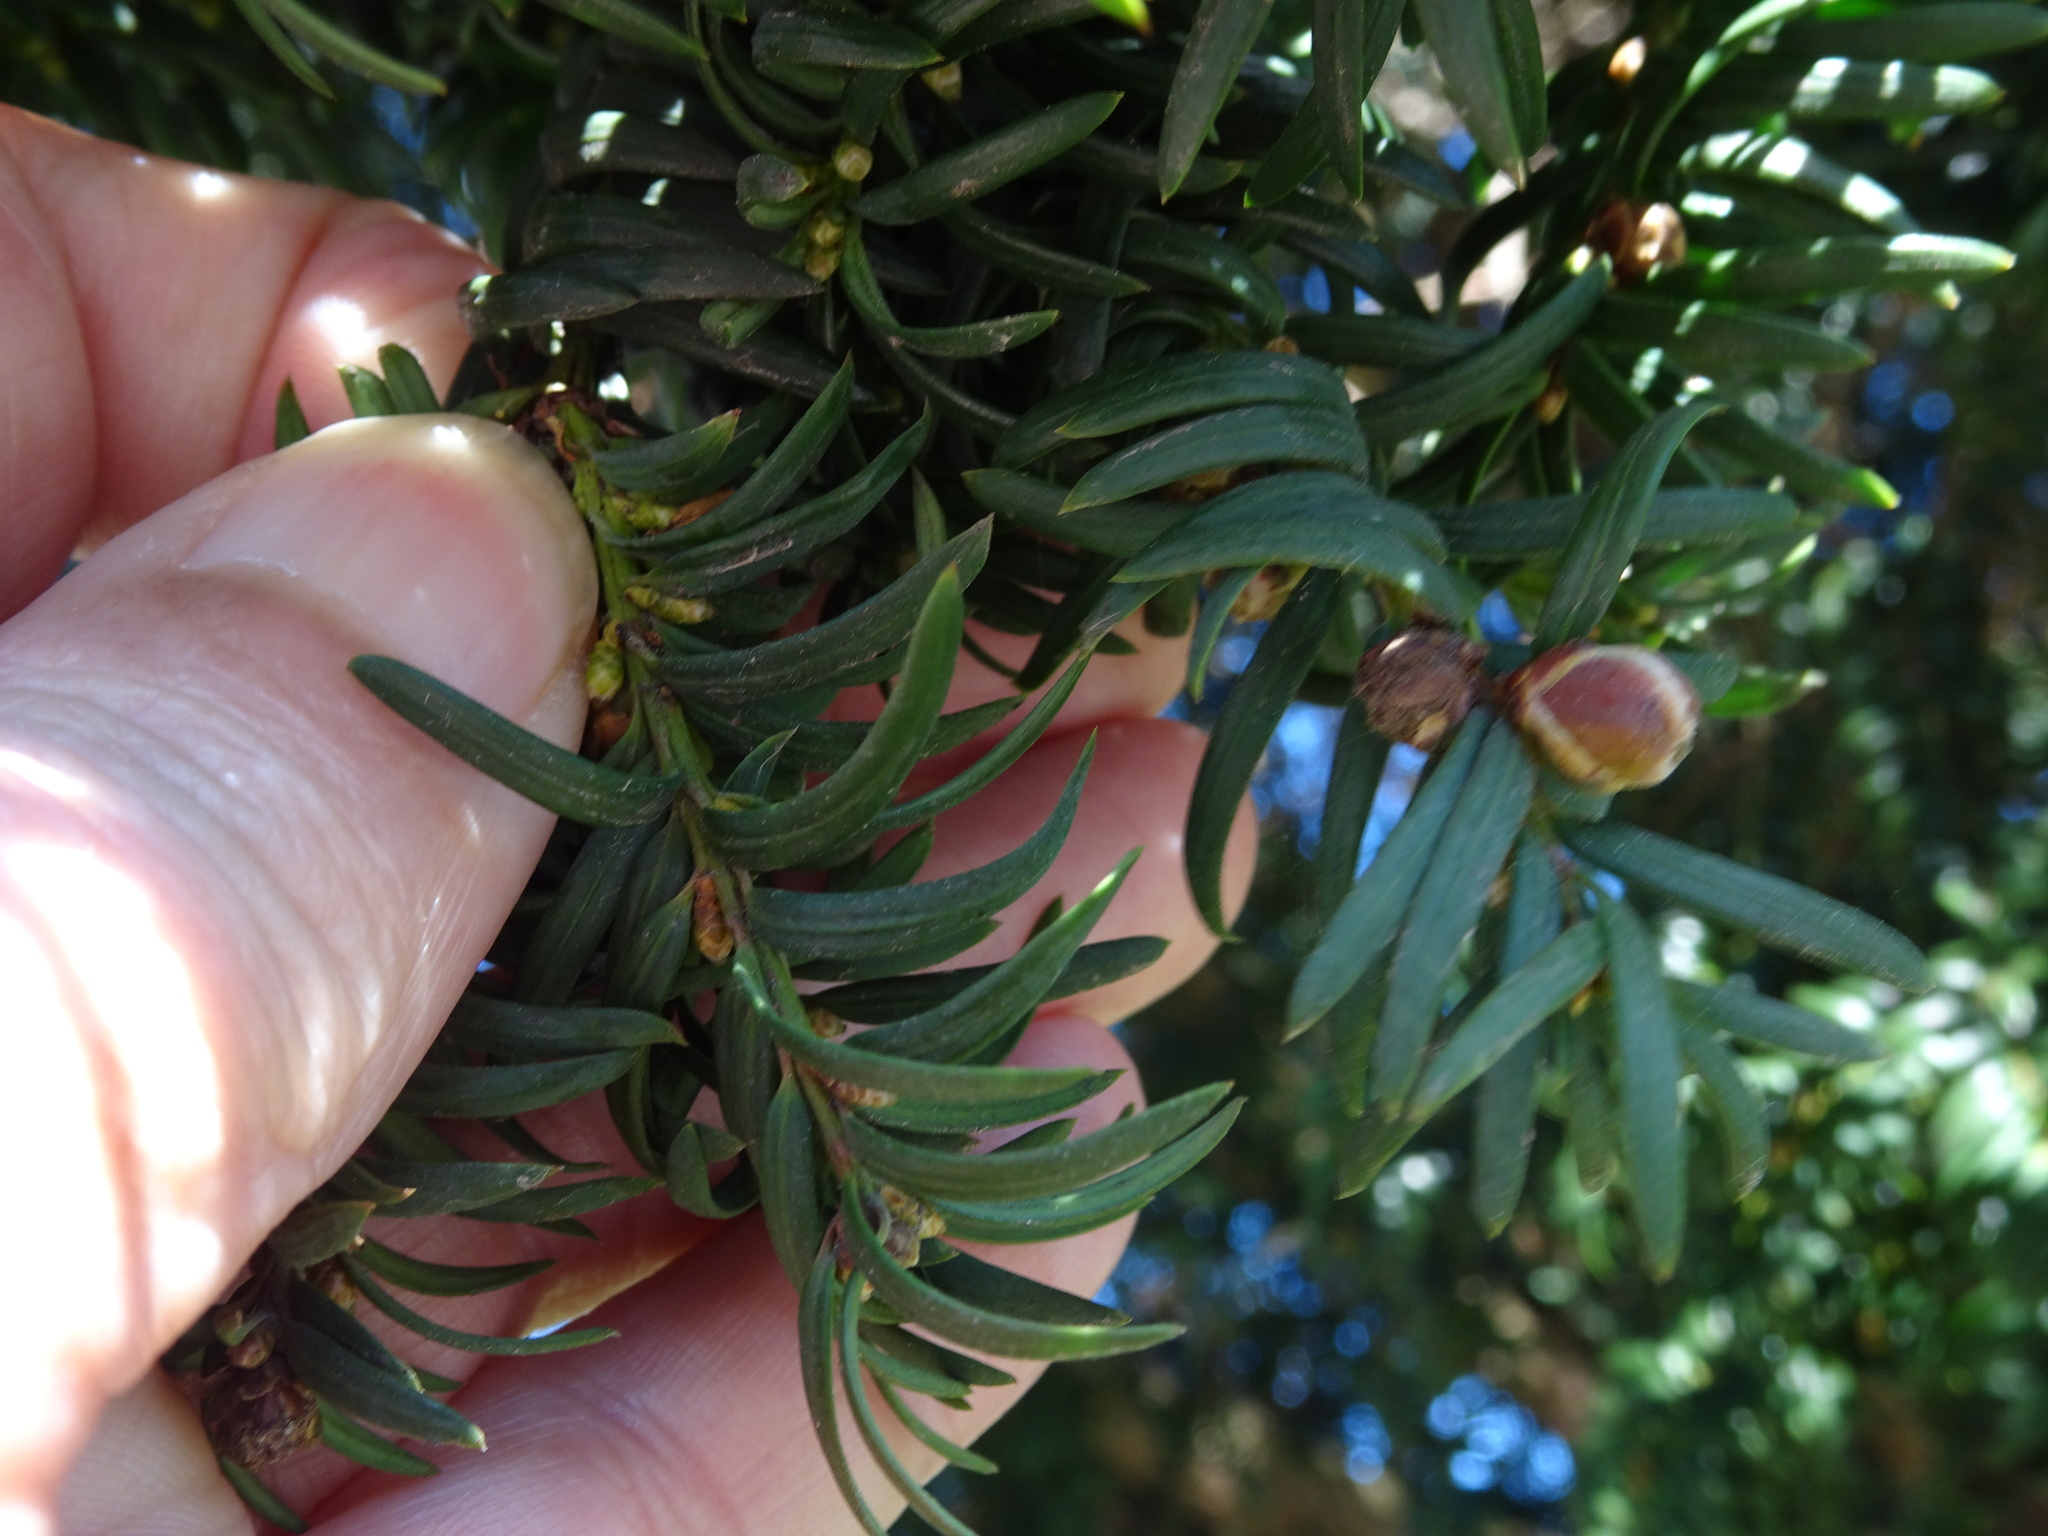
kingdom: Plantae
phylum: Tracheophyta
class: Pinopsida
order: Pinales
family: Taxaceae
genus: Taxus
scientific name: Taxus baccata
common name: Yew
